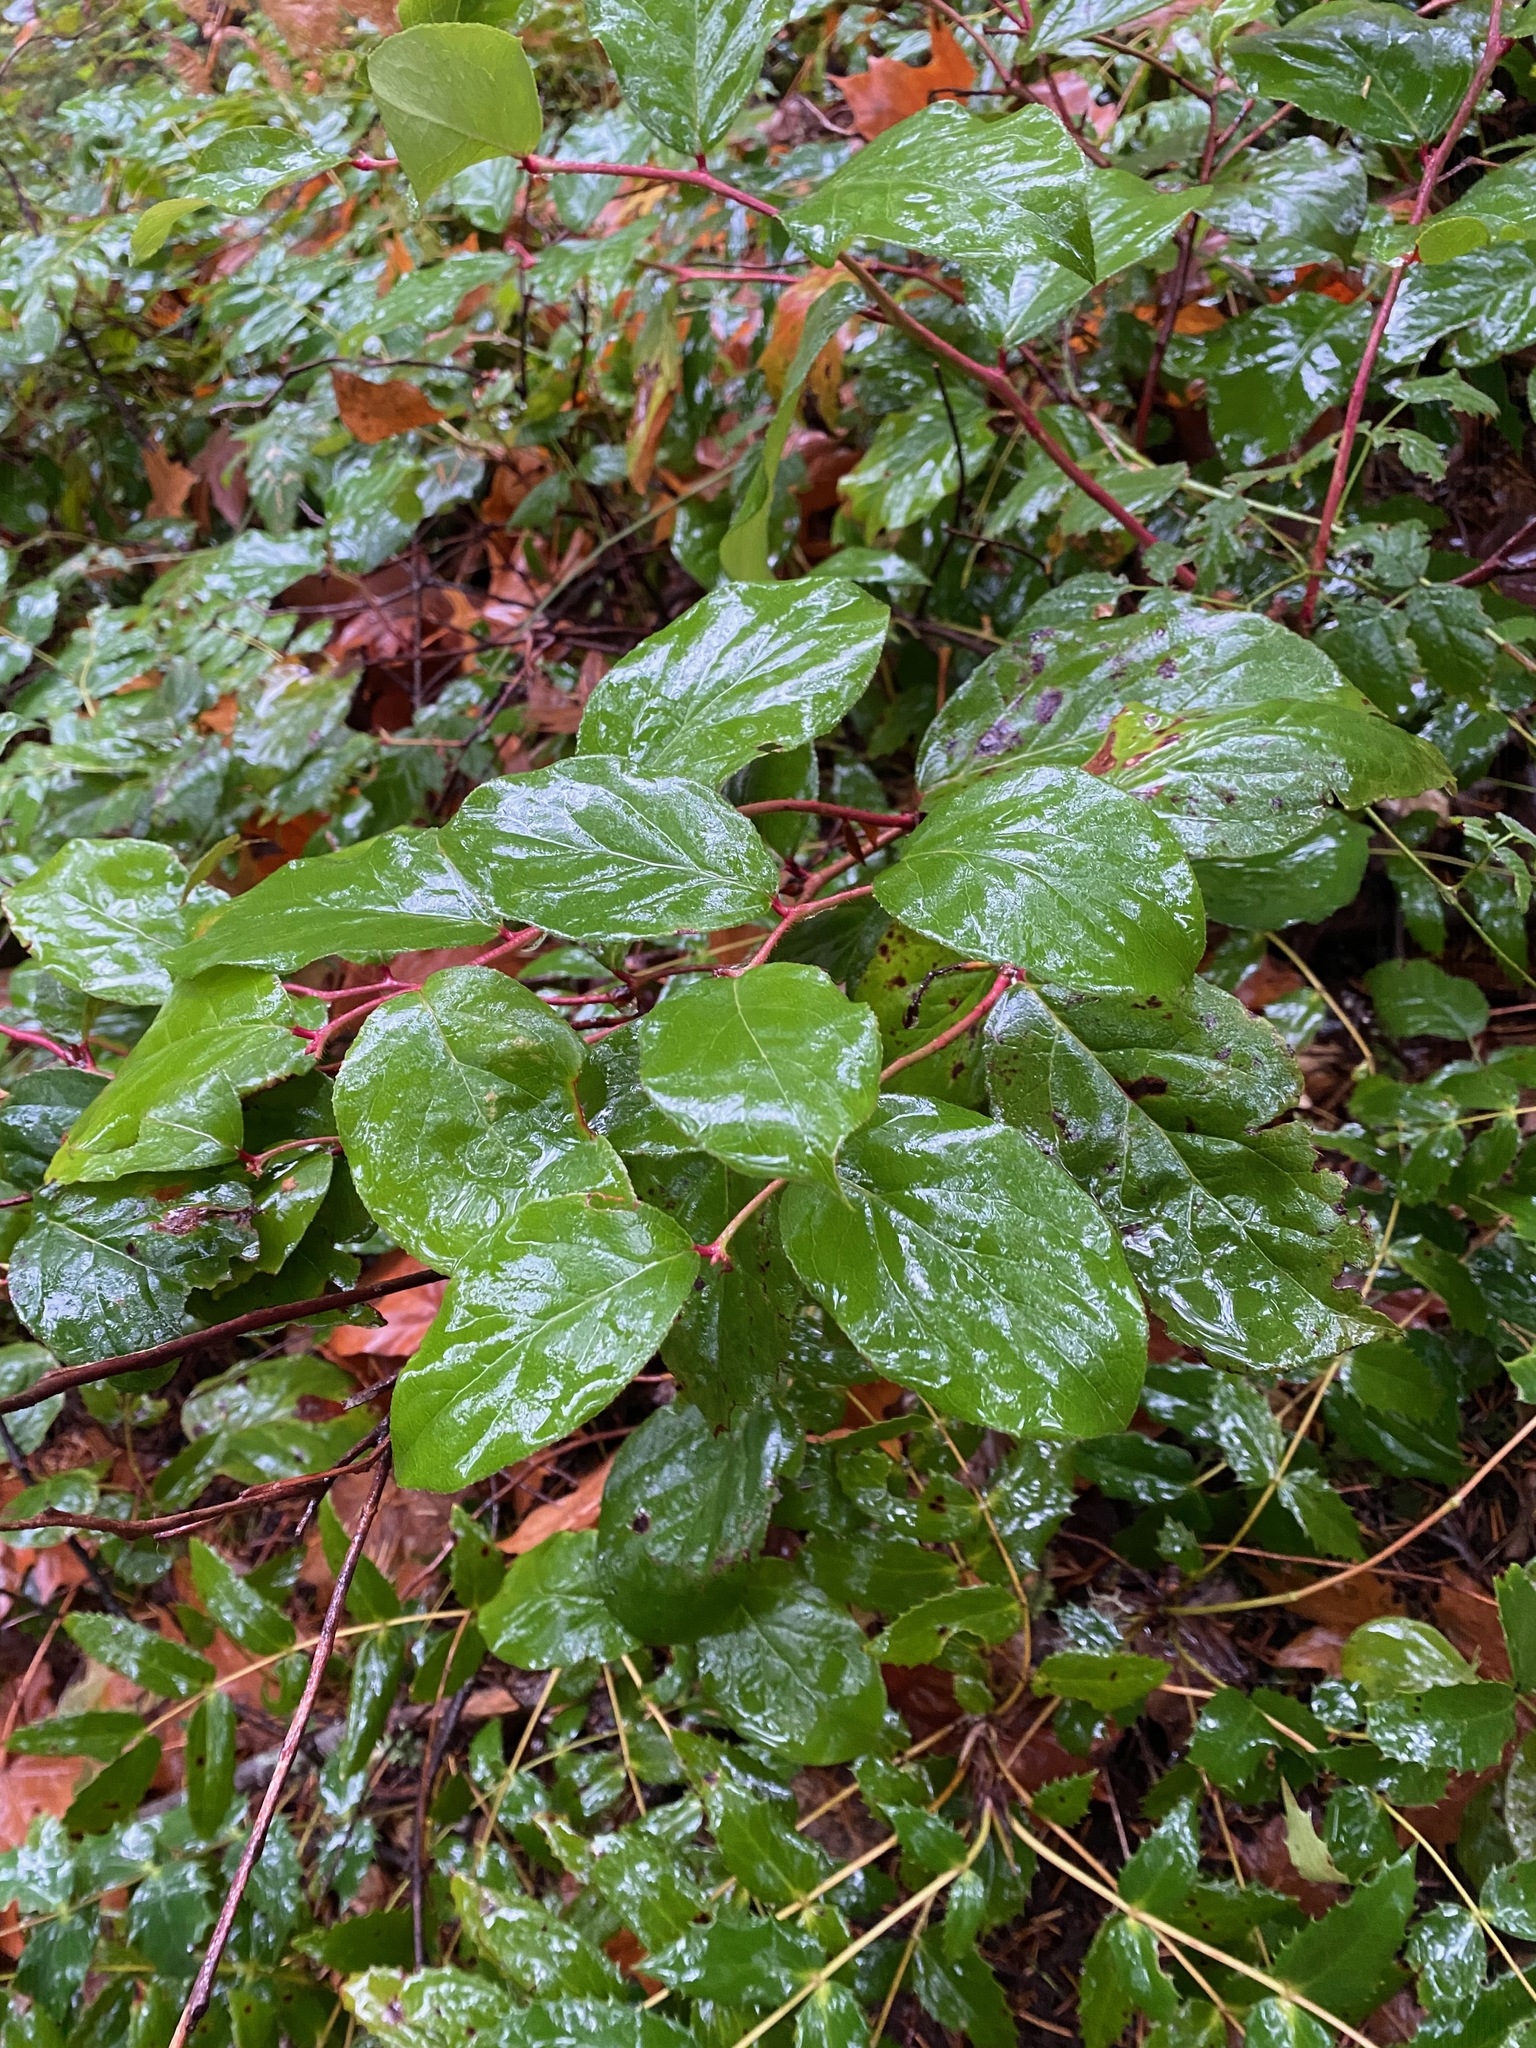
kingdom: Plantae
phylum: Tracheophyta
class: Magnoliopsida
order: Ericales
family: Ericaceae
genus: Gaultheria
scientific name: Gaultheria shallon
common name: Shallon
